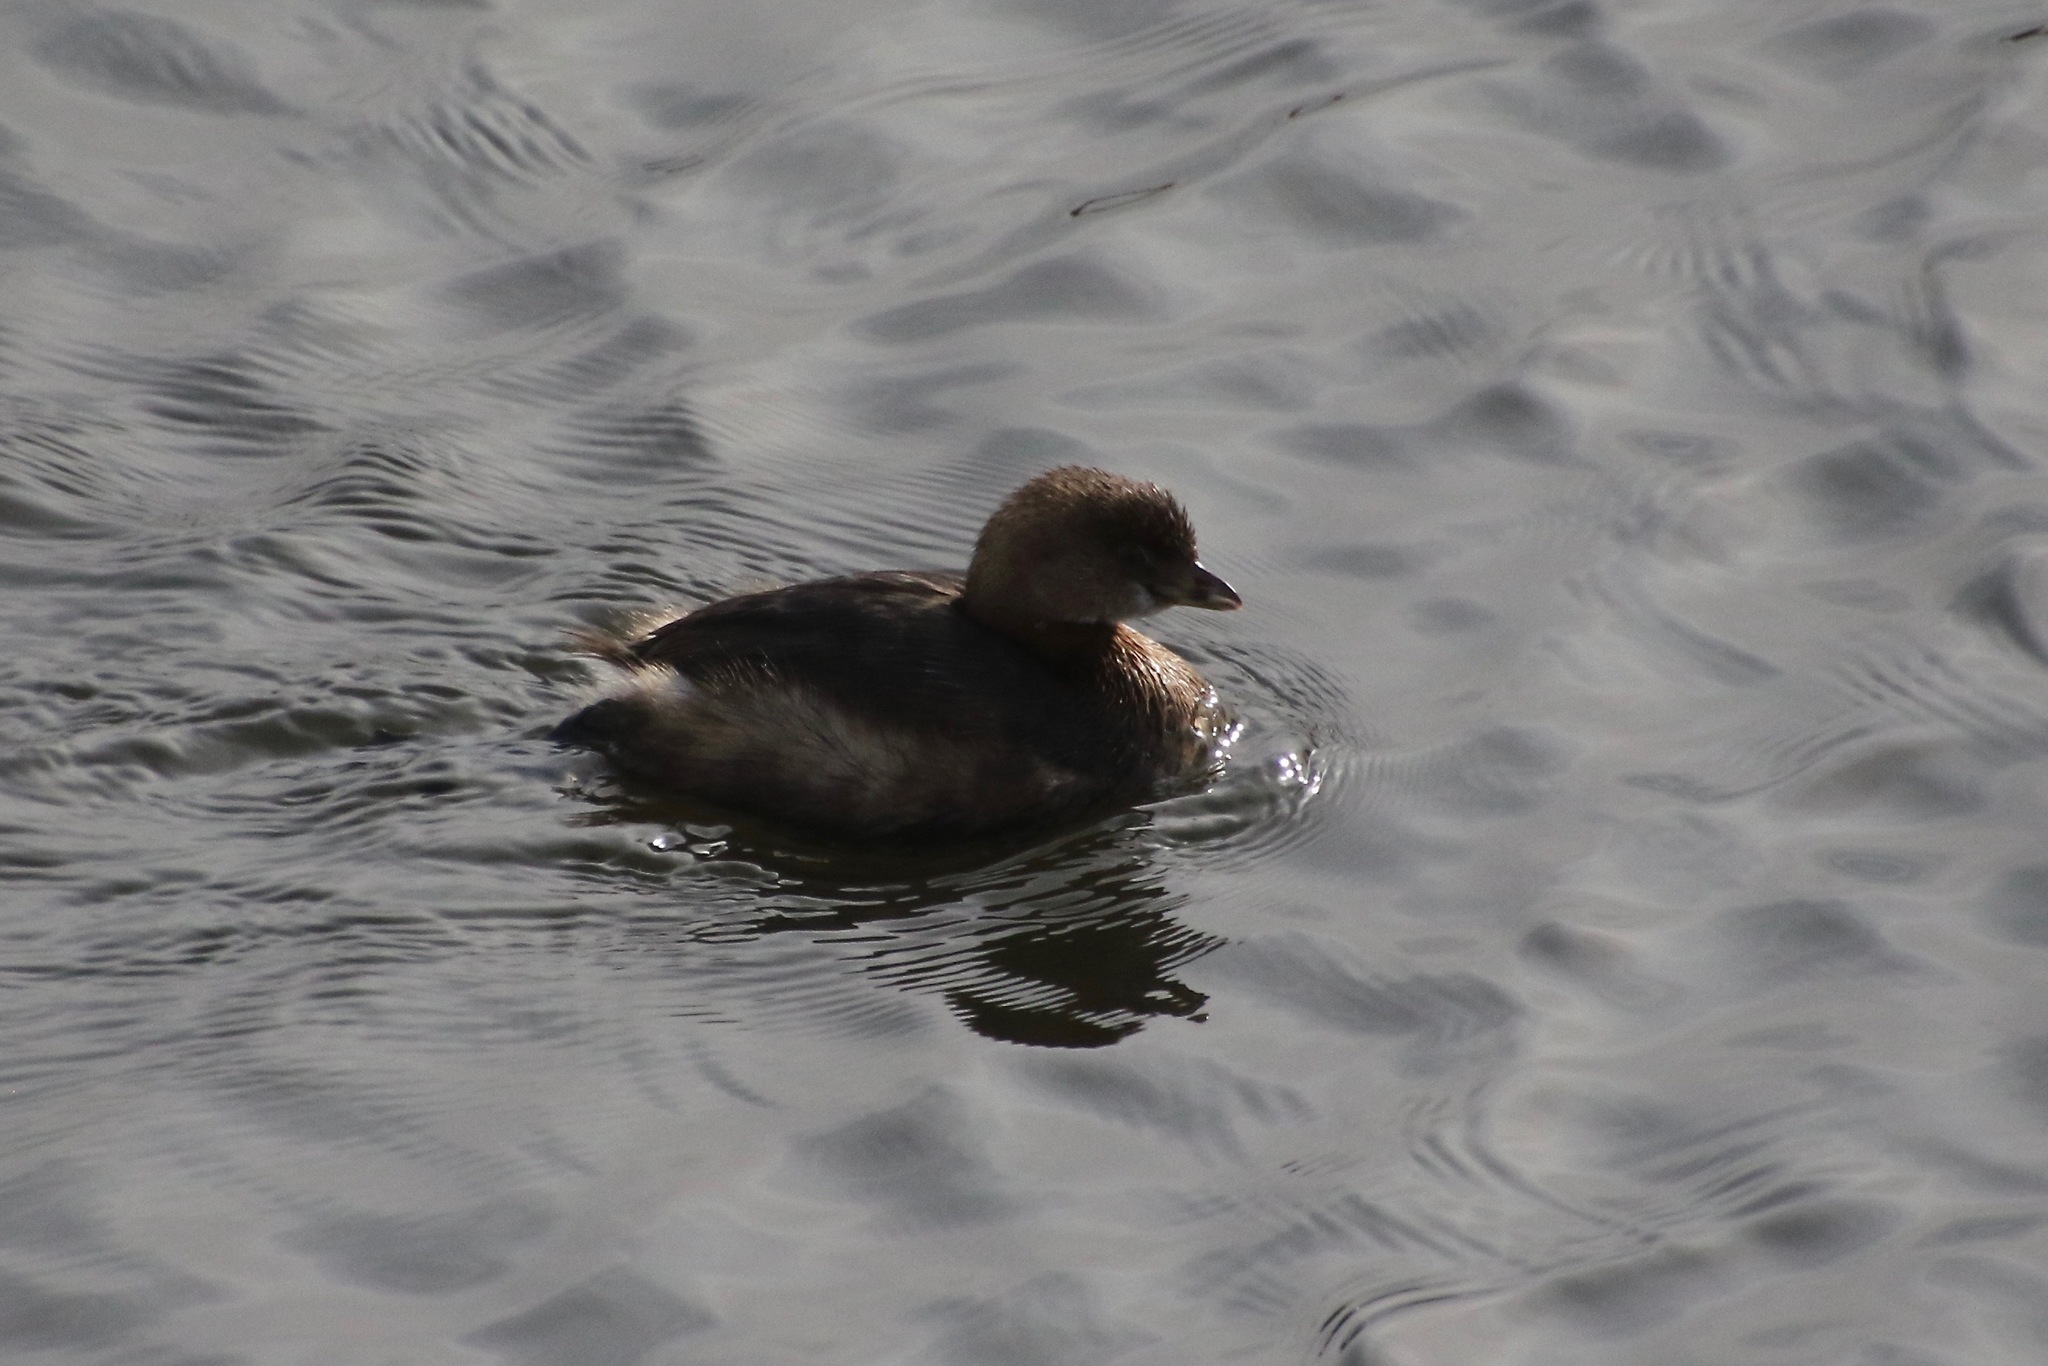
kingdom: Animalia
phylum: Chordata
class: Aves
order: Podicipediformes
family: Podicipedidae
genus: Podilymbus
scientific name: Podilymbus podiceps
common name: Pied-billed grebe
